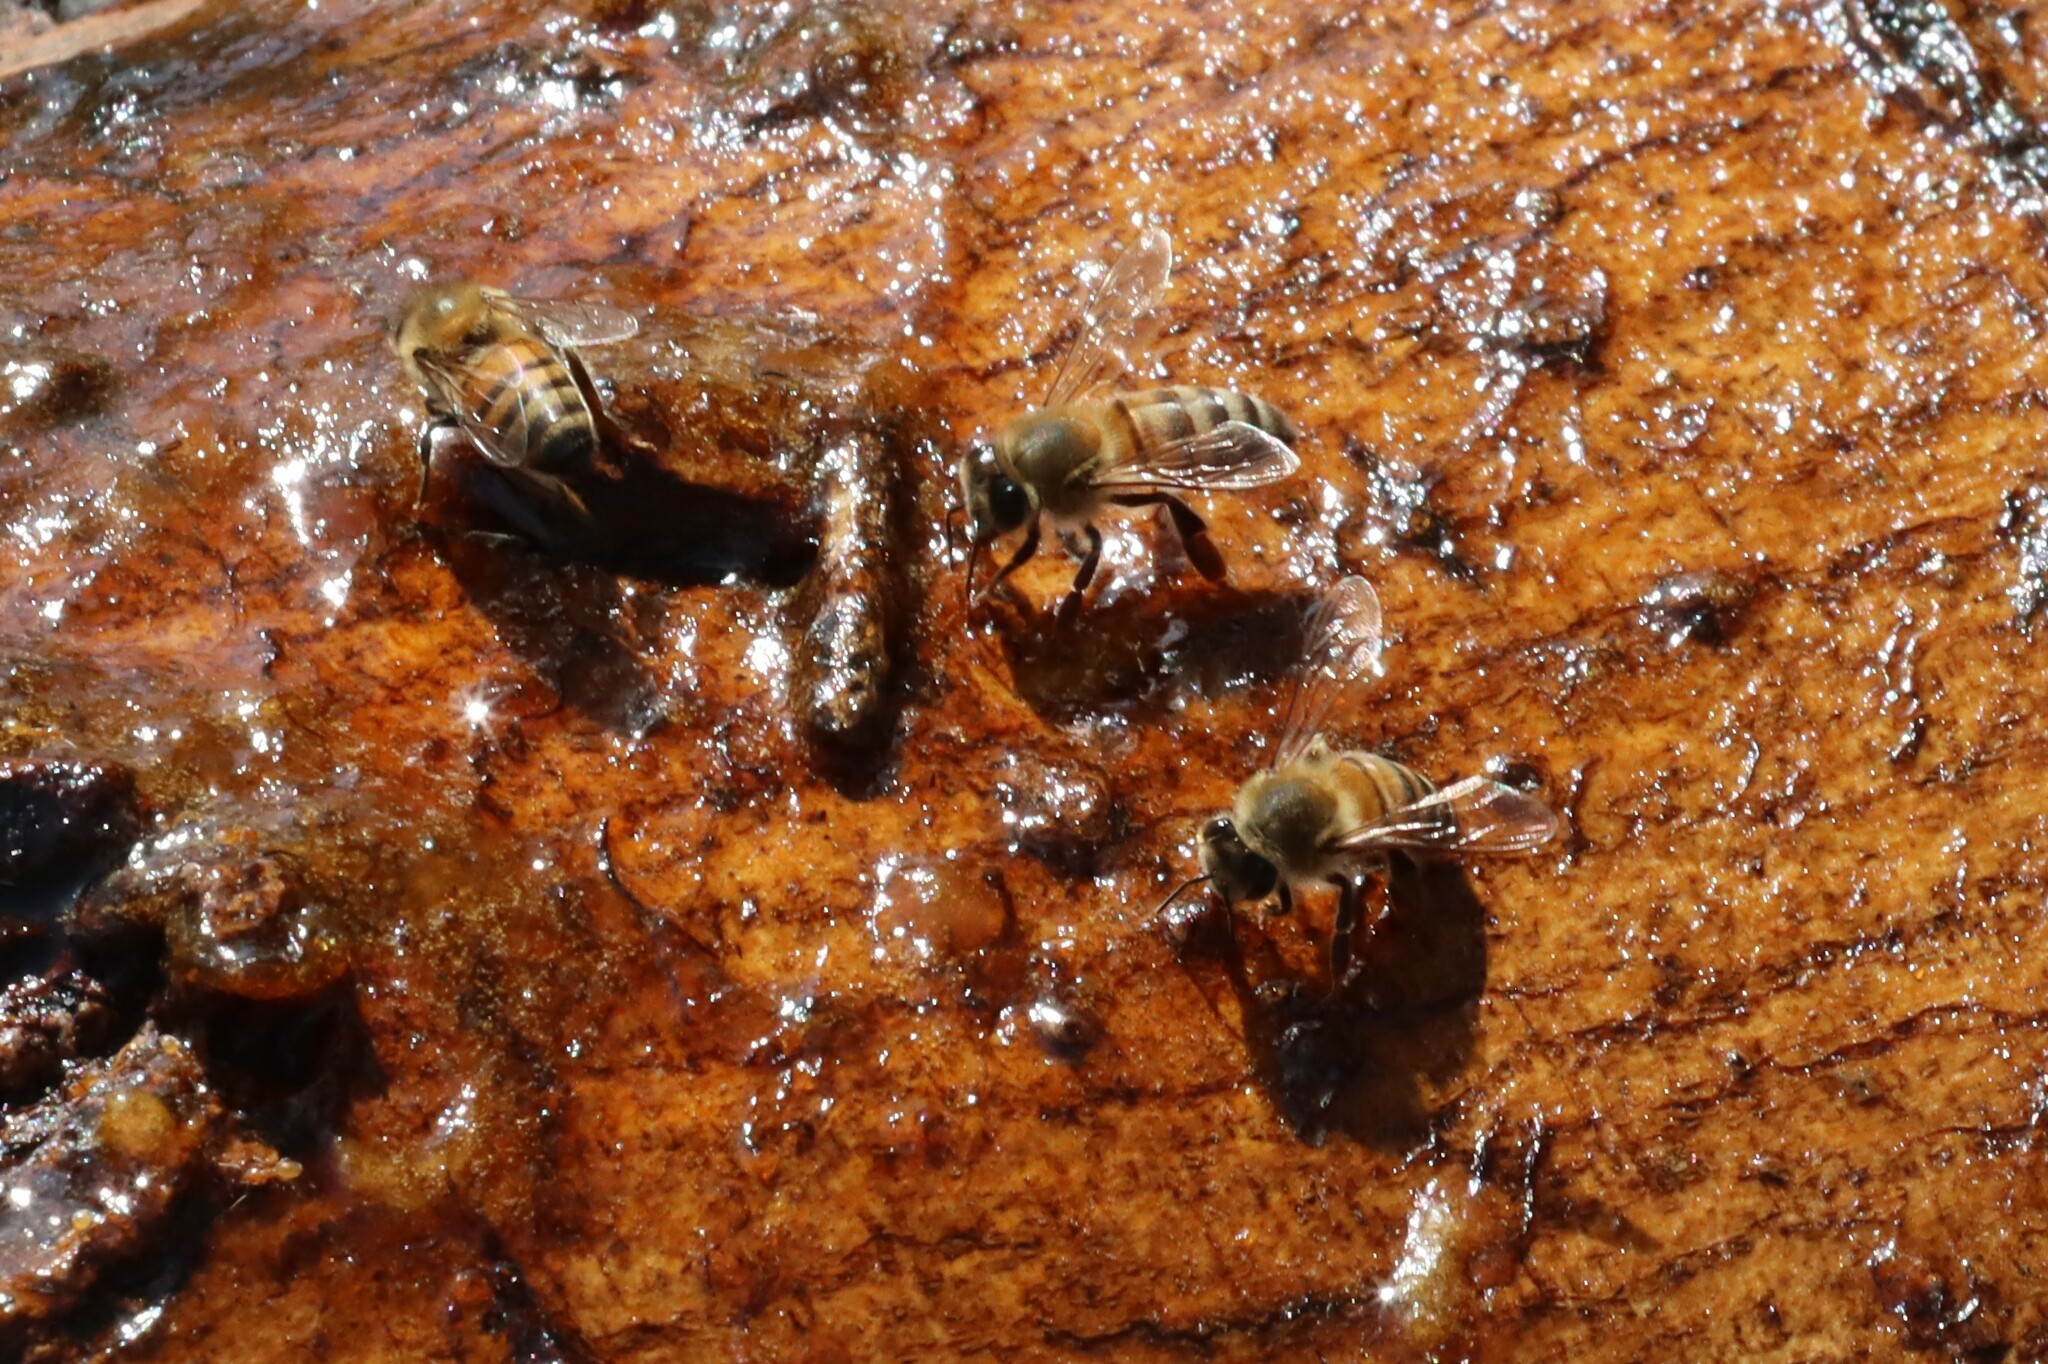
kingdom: Animalia
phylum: Arthropoda
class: Insecta
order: Hymenoptera
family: Apidae
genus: Apis
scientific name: Apis mellifera
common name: Honey bee
